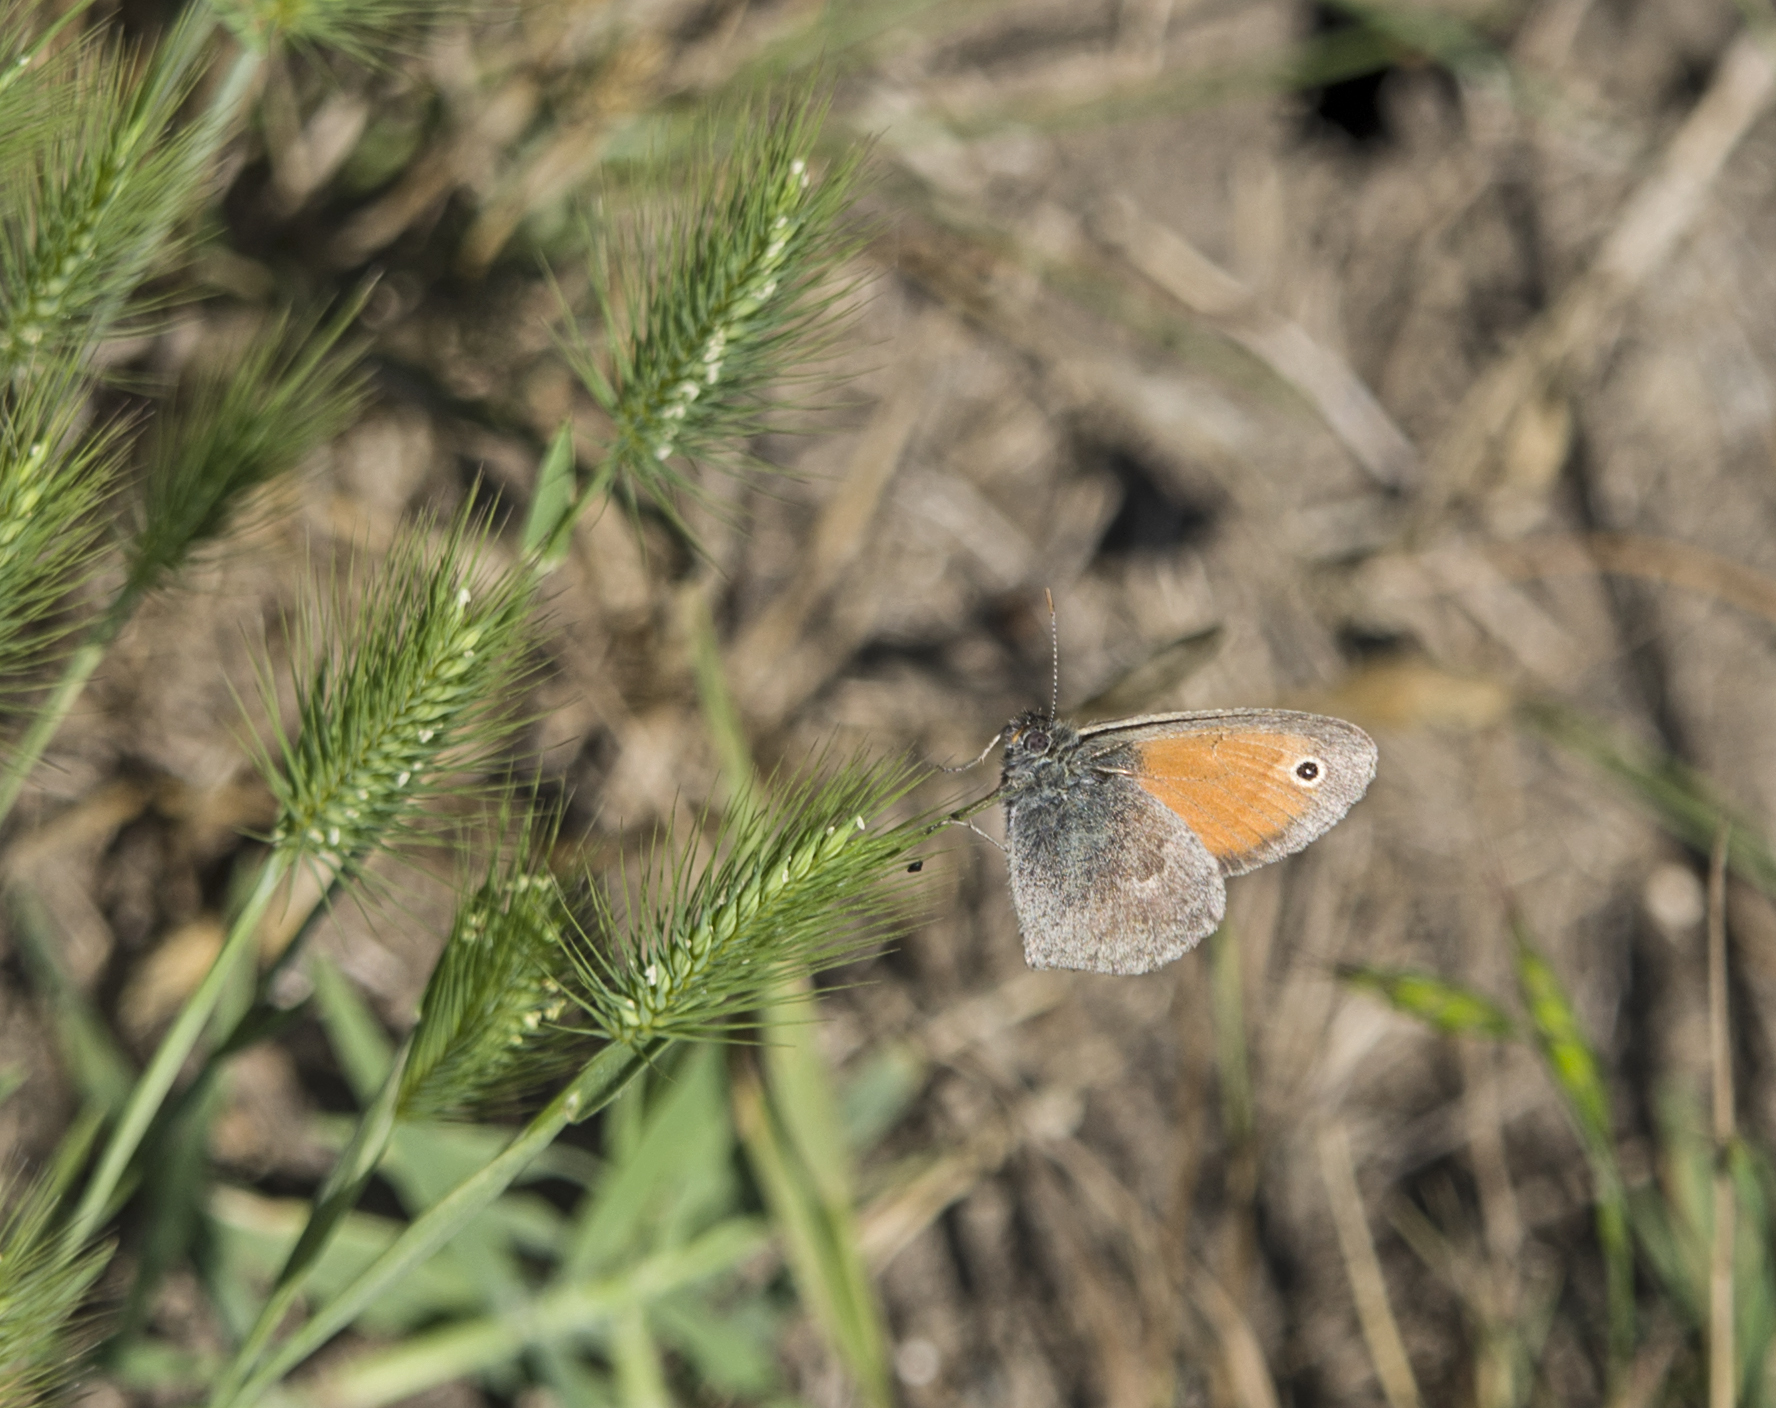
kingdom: Animalia
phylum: Arthropoda
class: Insecta
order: Lepidoptera
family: Nymphalidae
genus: Coenonympha
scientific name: Coenonympha pamphilus
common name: Small heath
